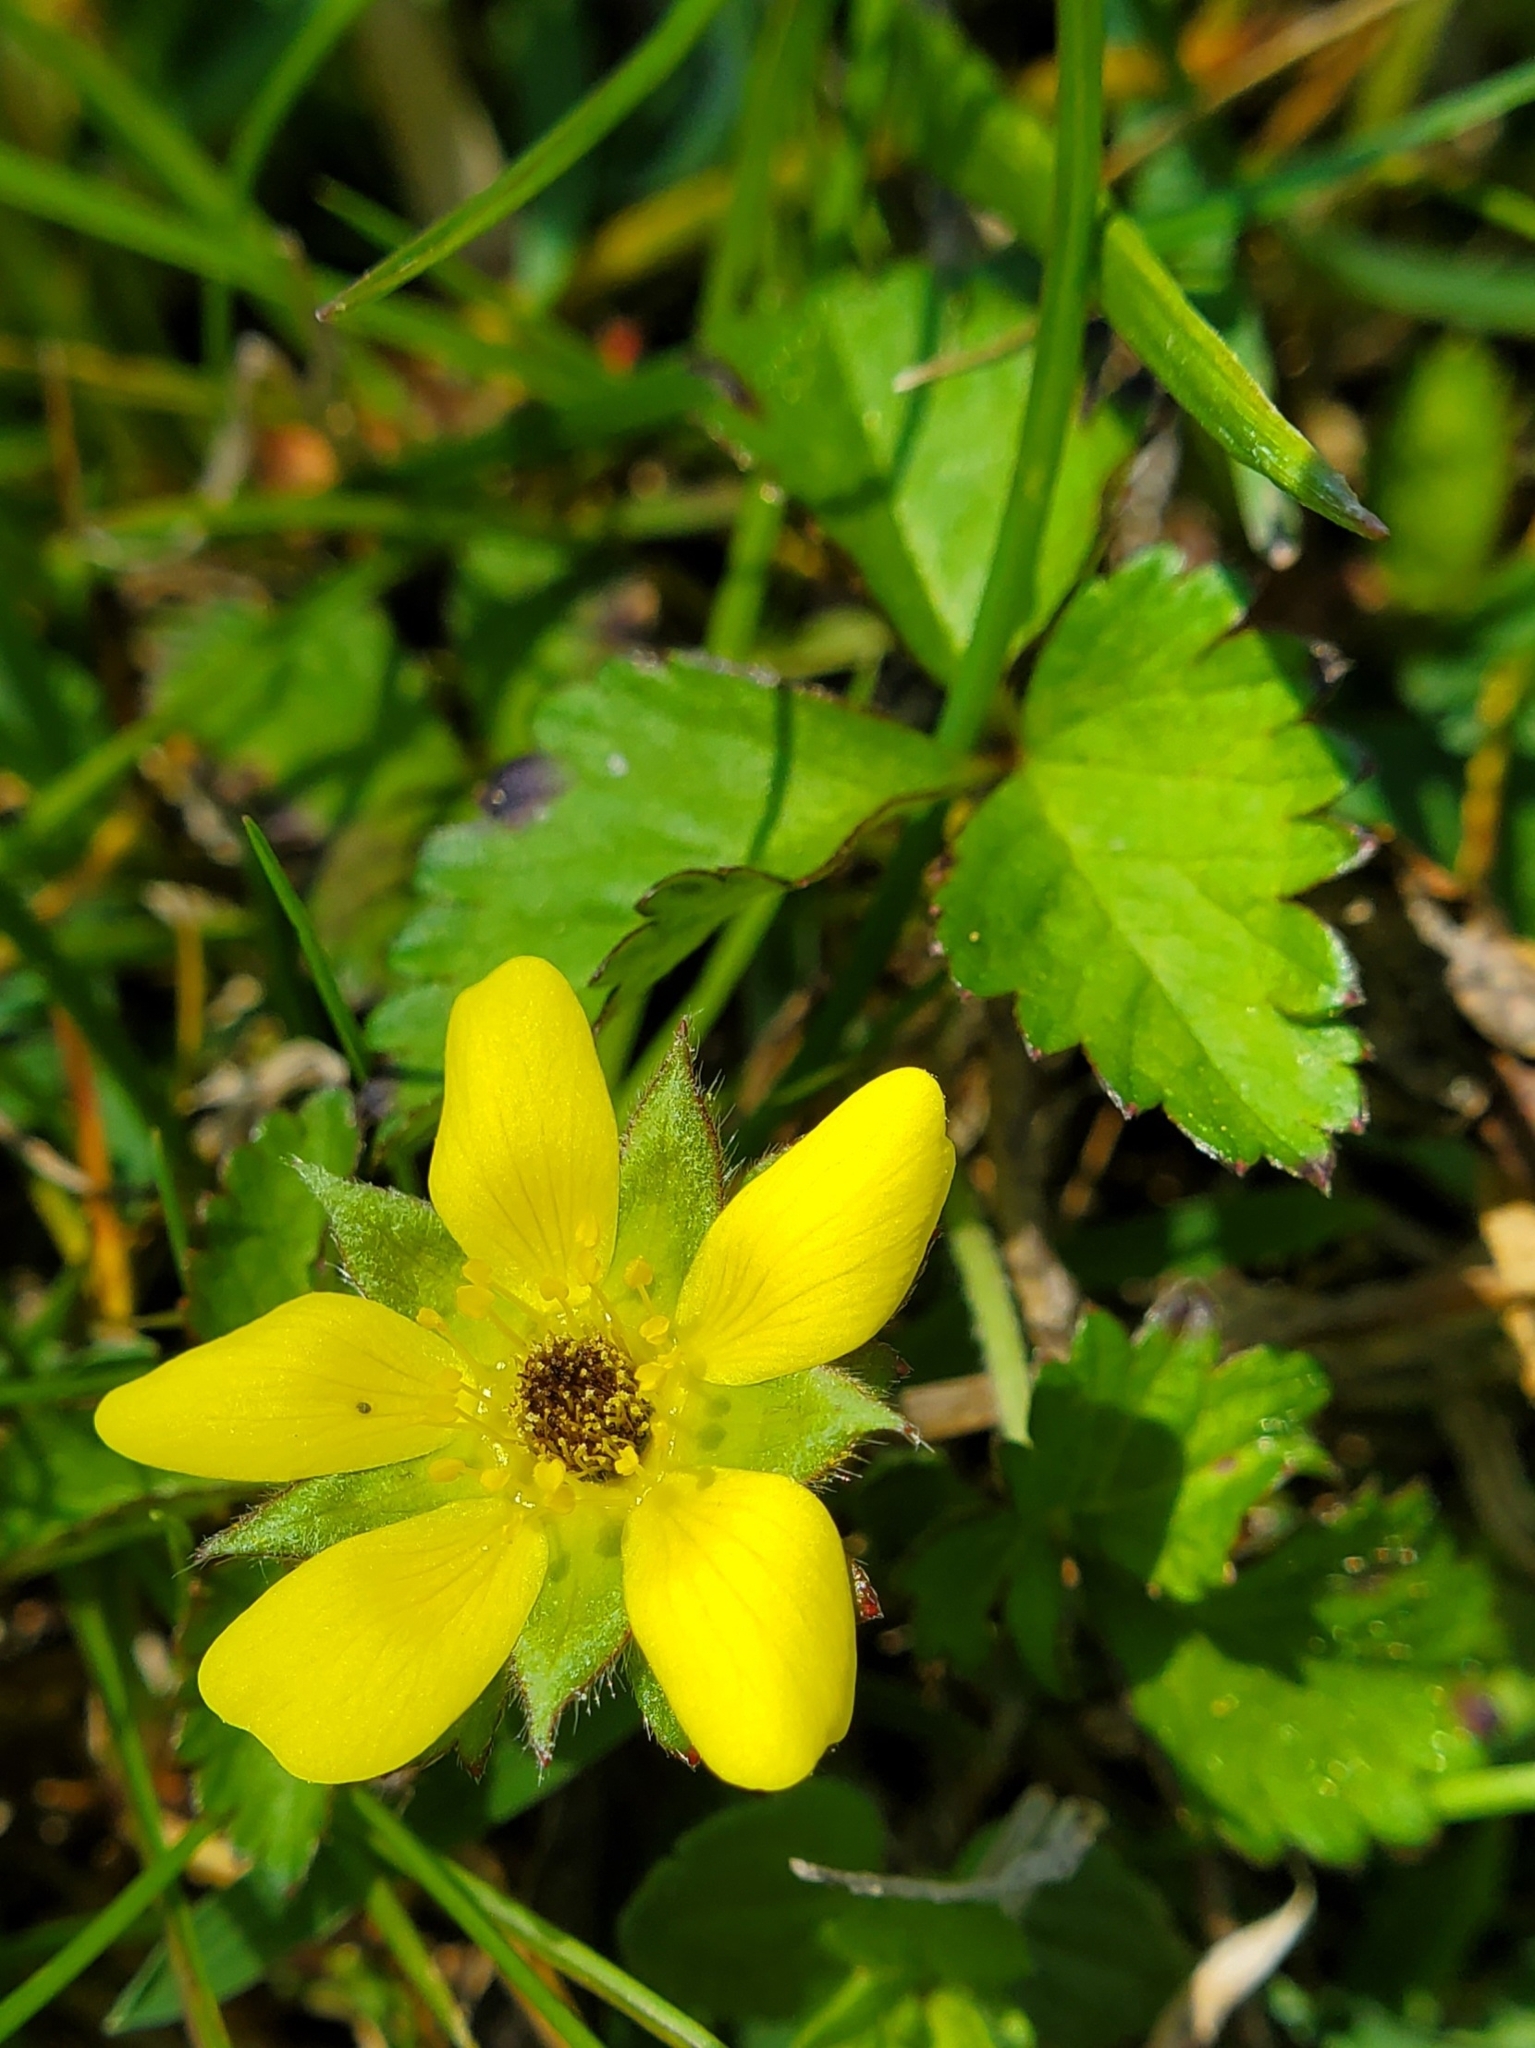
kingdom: Plantae
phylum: Tracheophyta
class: Magnoliopsida
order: Rosales
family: Rosaceae
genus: Potentilla
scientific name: Potentilla indica
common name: Yellow-flowered strawberry
